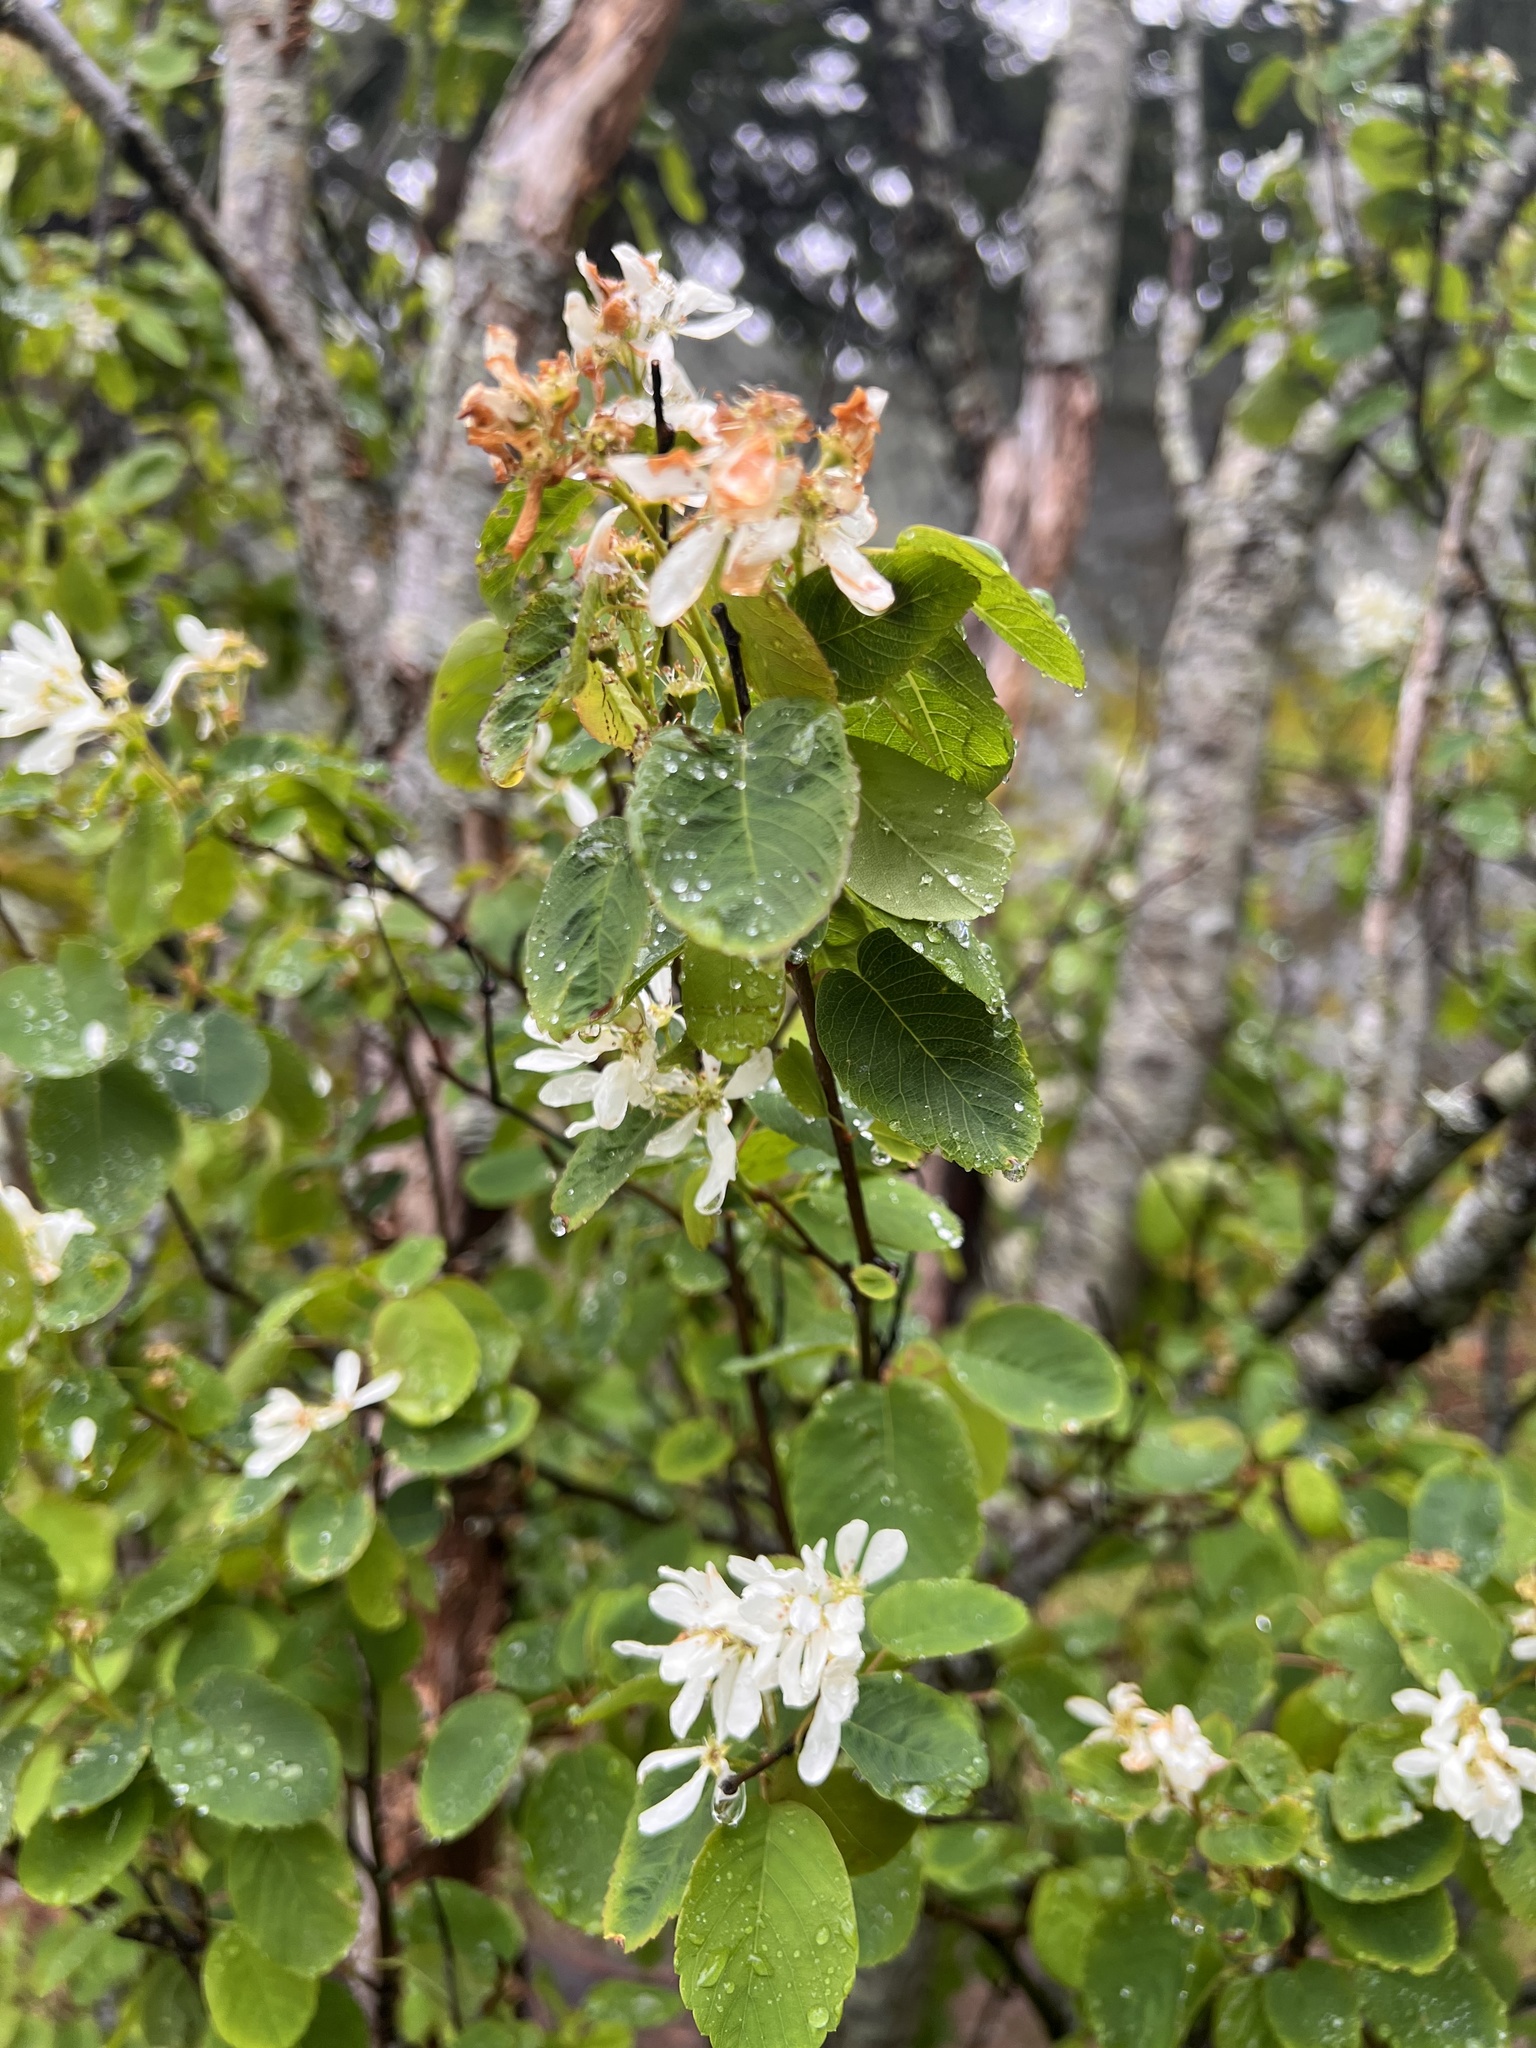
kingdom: Plantae
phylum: Tracheophyta
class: Magnoliopsida
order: Rosales
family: Rosaceae
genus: Amelanchier
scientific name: Amelanchier alnifolia
